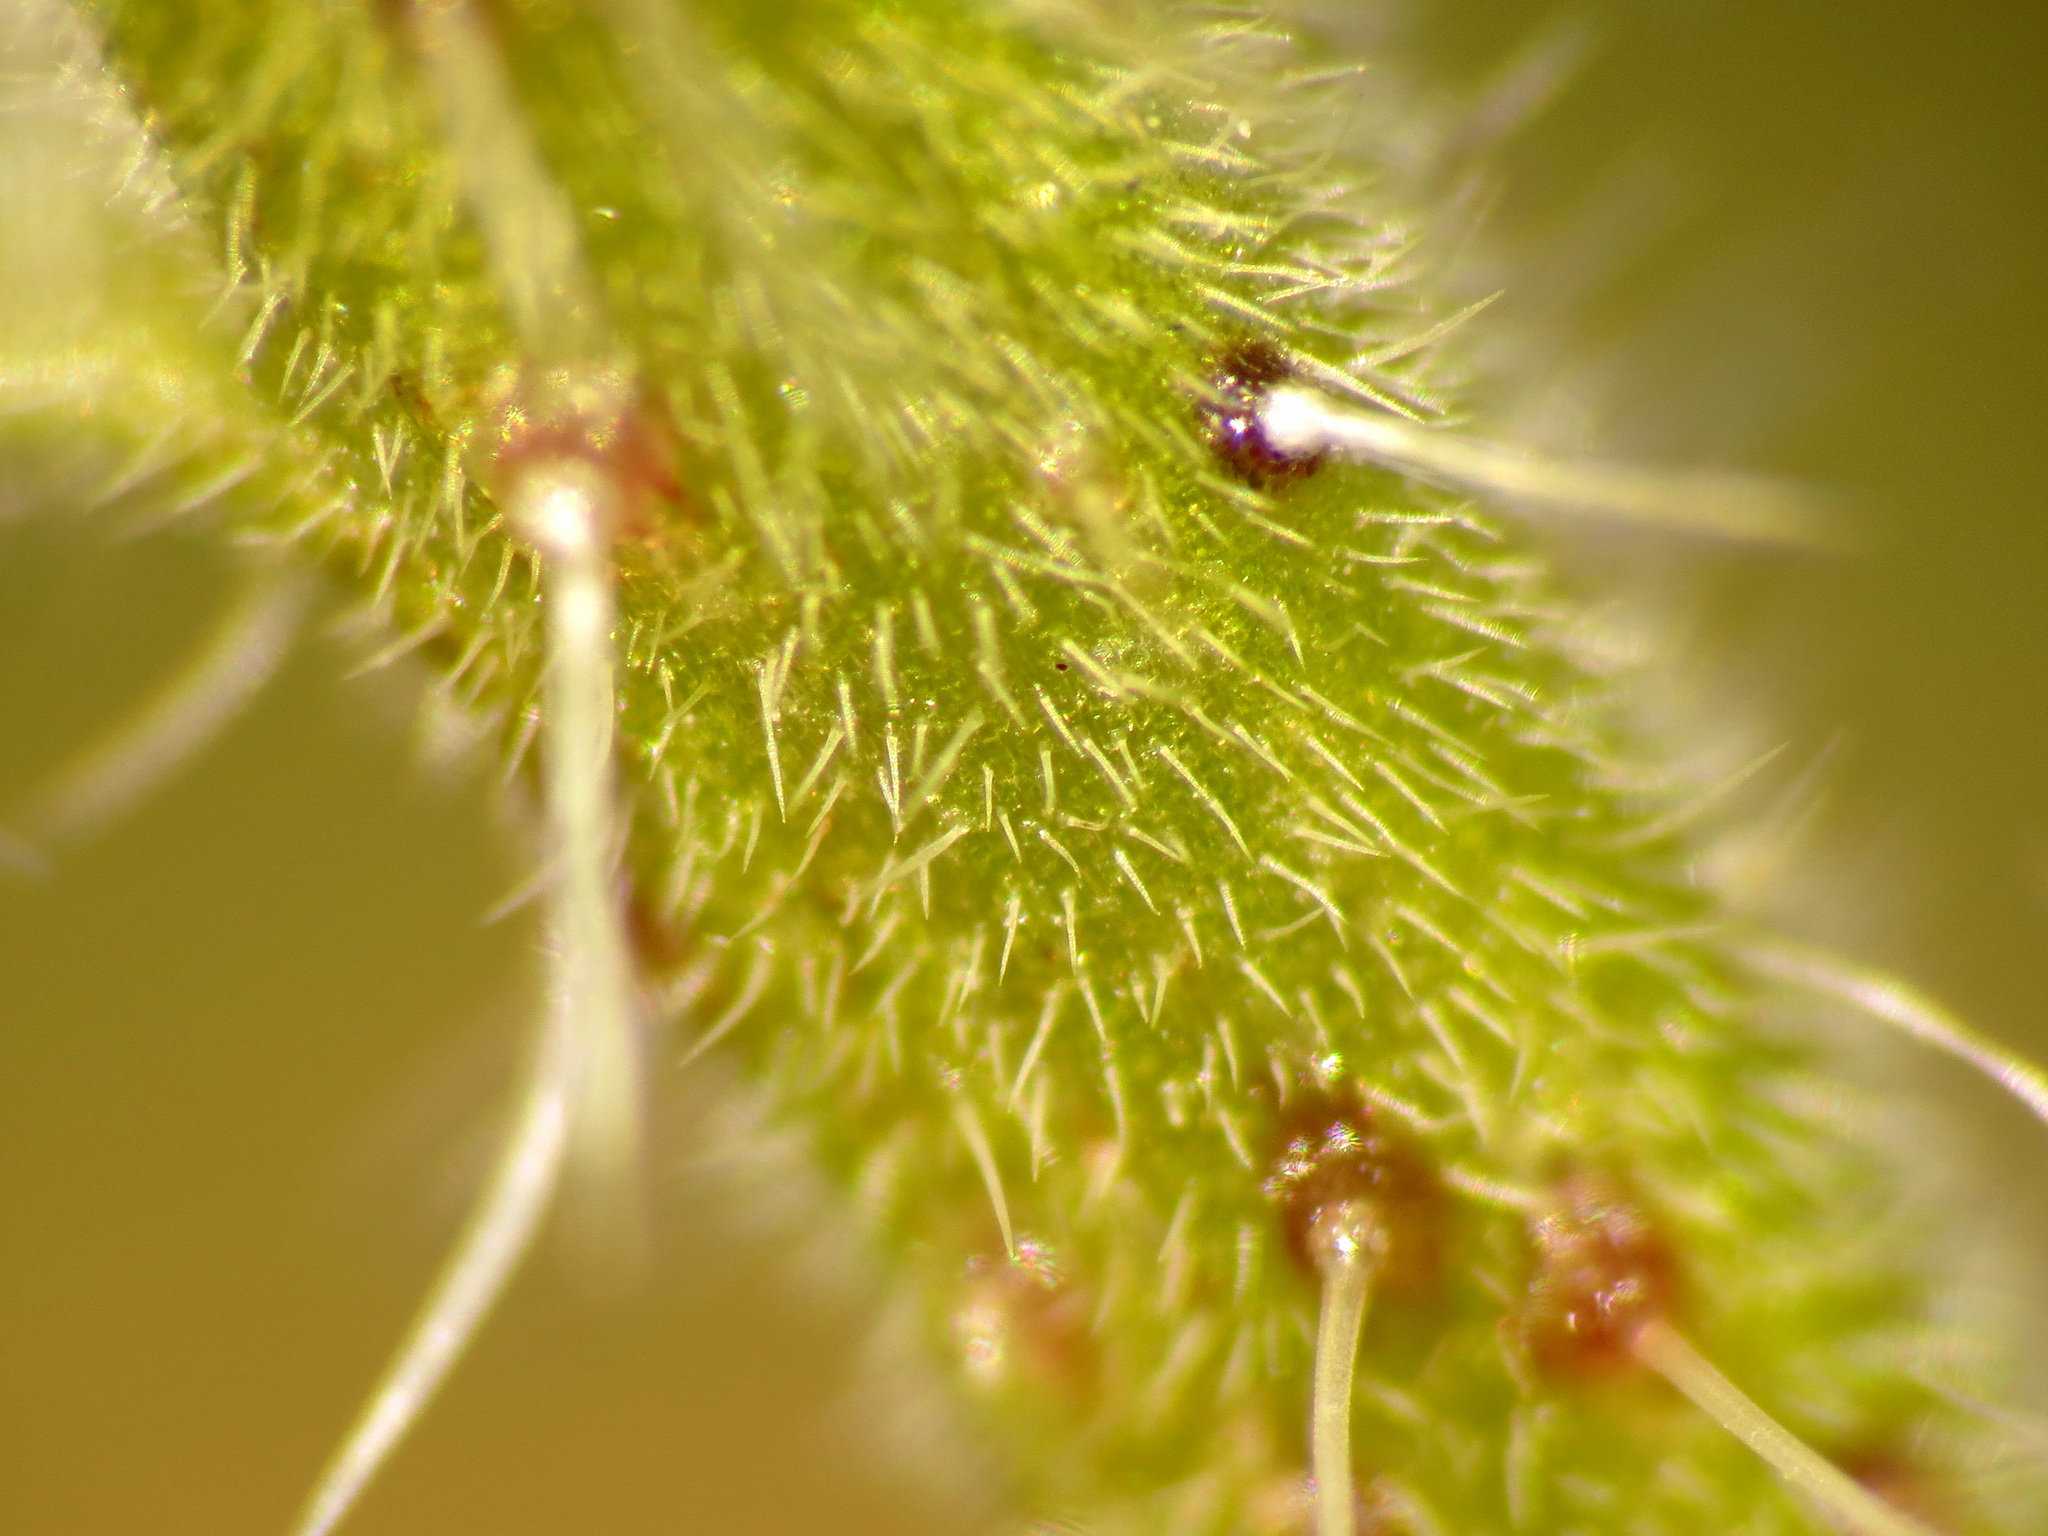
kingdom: Plantae
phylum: Tracheophyta
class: Magnoliopsida
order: Boraginales
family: Boraginaceae
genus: Echium
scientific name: Echium vulgare
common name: Common viper's bugloss
